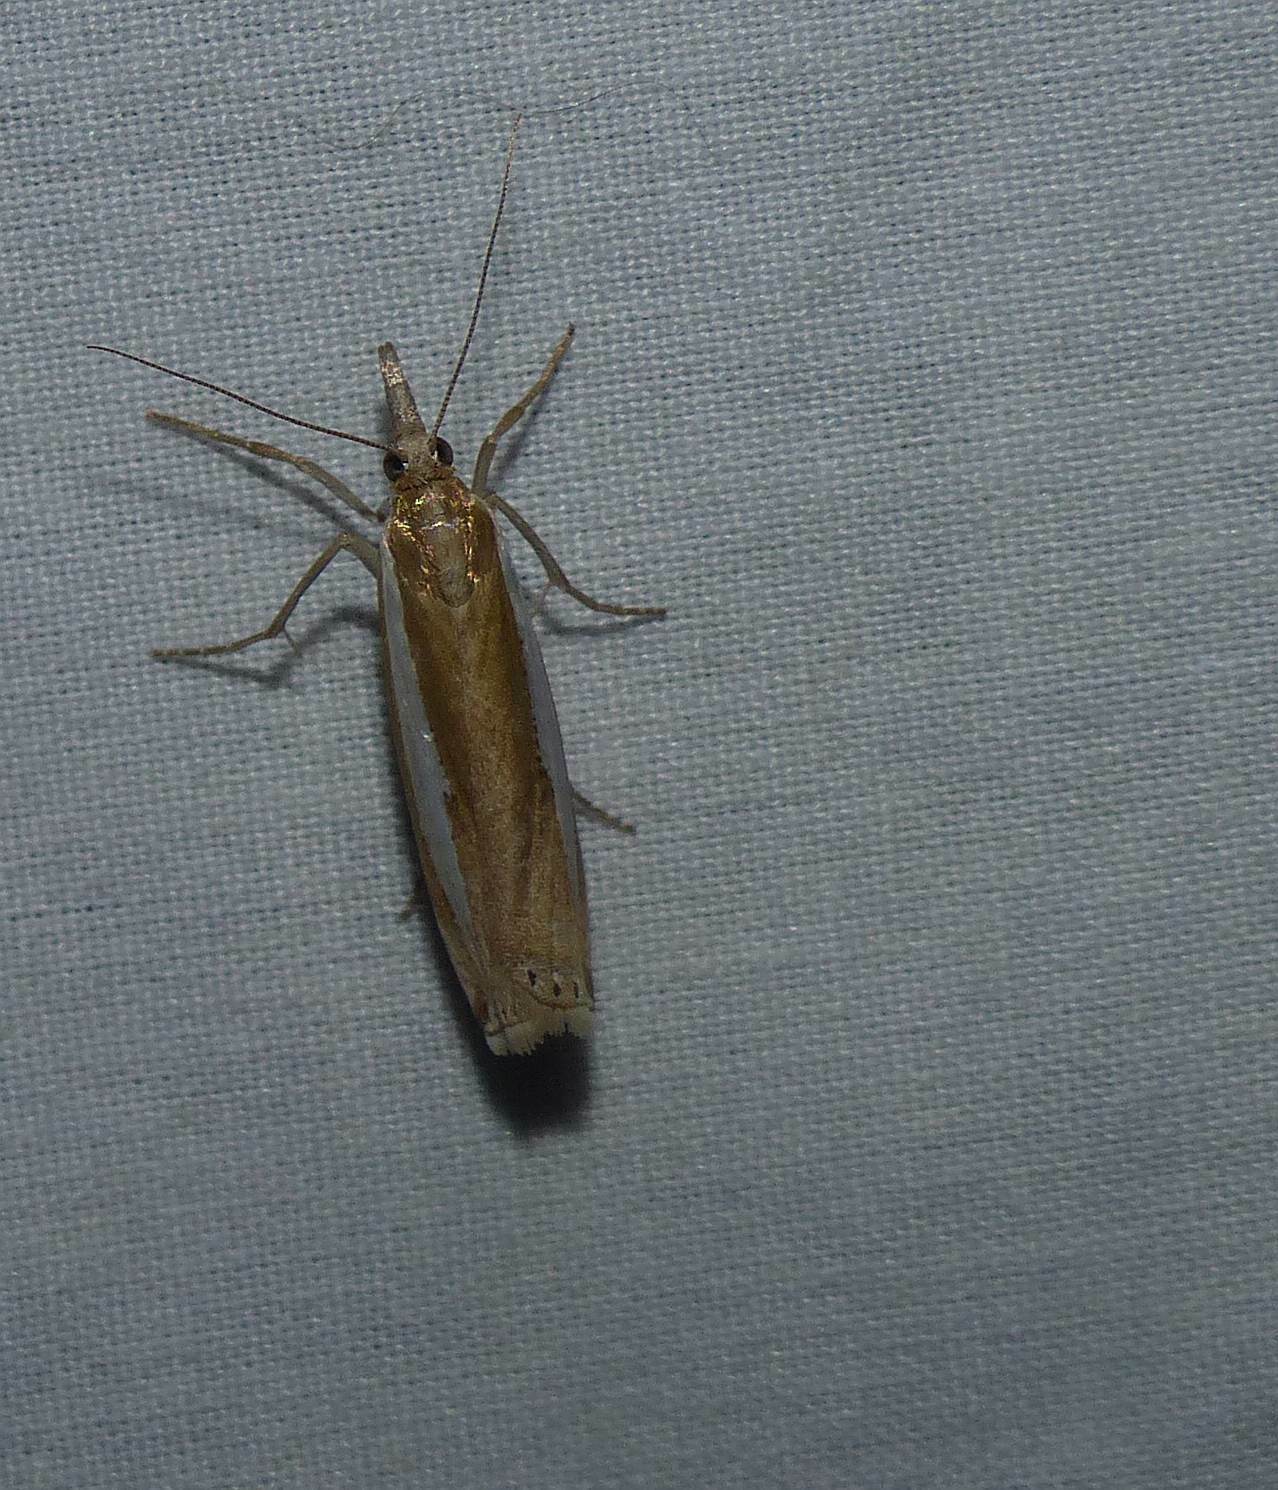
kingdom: Animalia
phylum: Arthropoda
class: Insecta
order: Lepidoptera
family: Crambidae
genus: Crambus
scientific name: Crambus praefectellus
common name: Common grass-veneer
